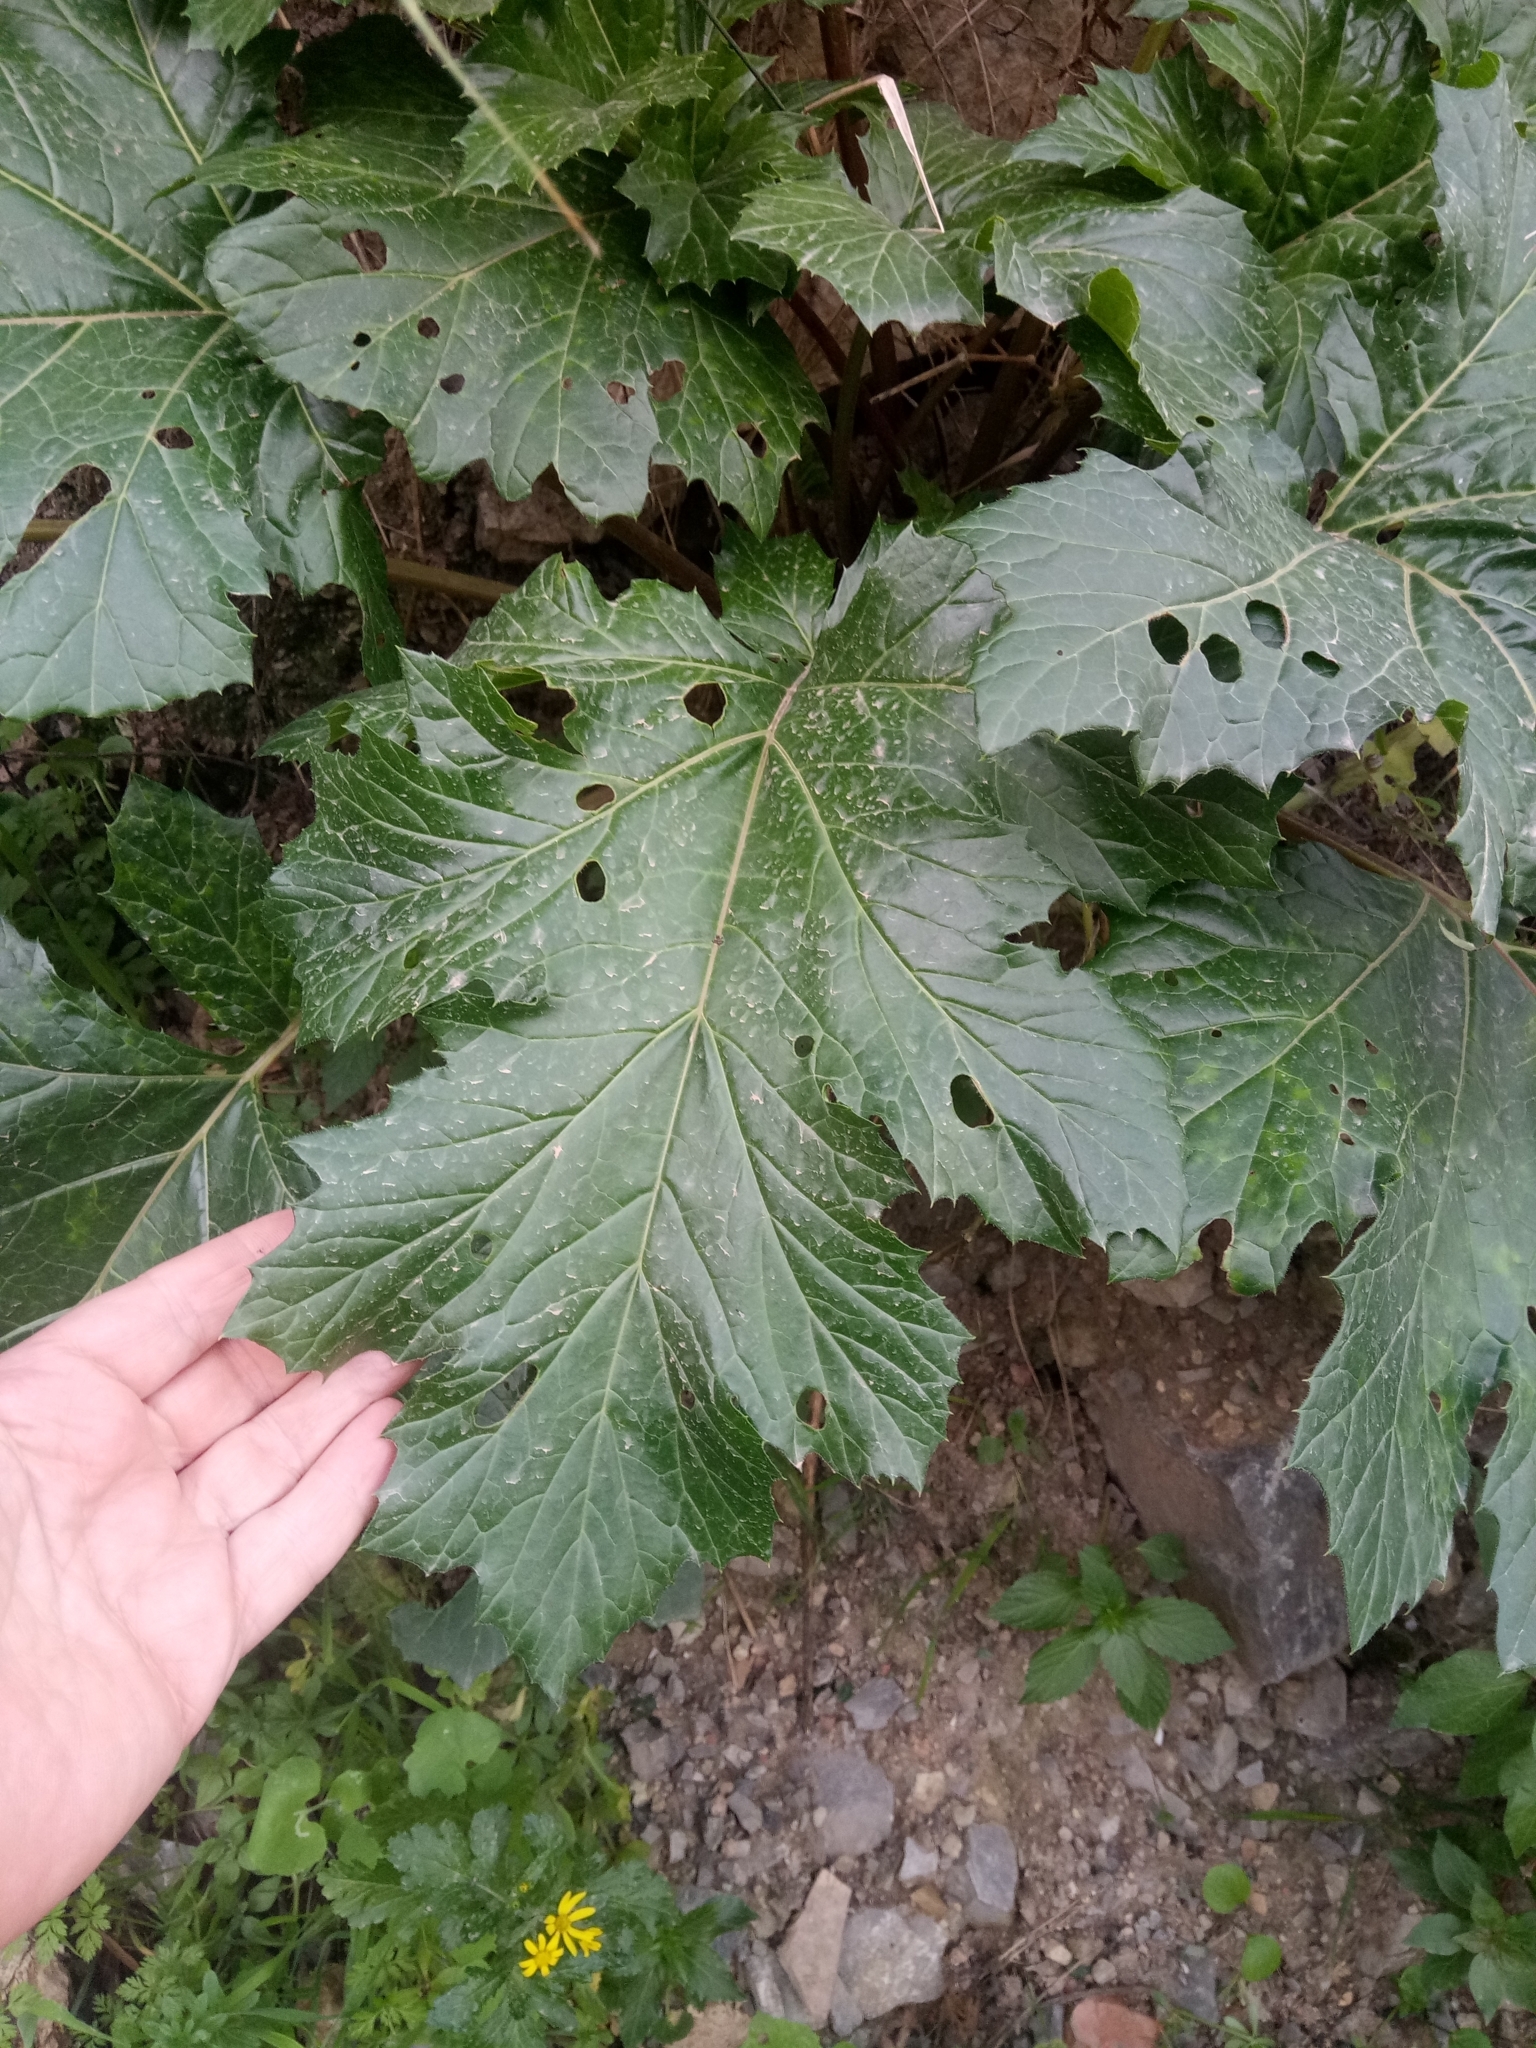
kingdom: Plantae
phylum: Tracheophyta
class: Magnoliopsida
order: Lamiales
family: Acanthaceae
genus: Acanthus
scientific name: Acanthus mollis
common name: Bear's-breech
